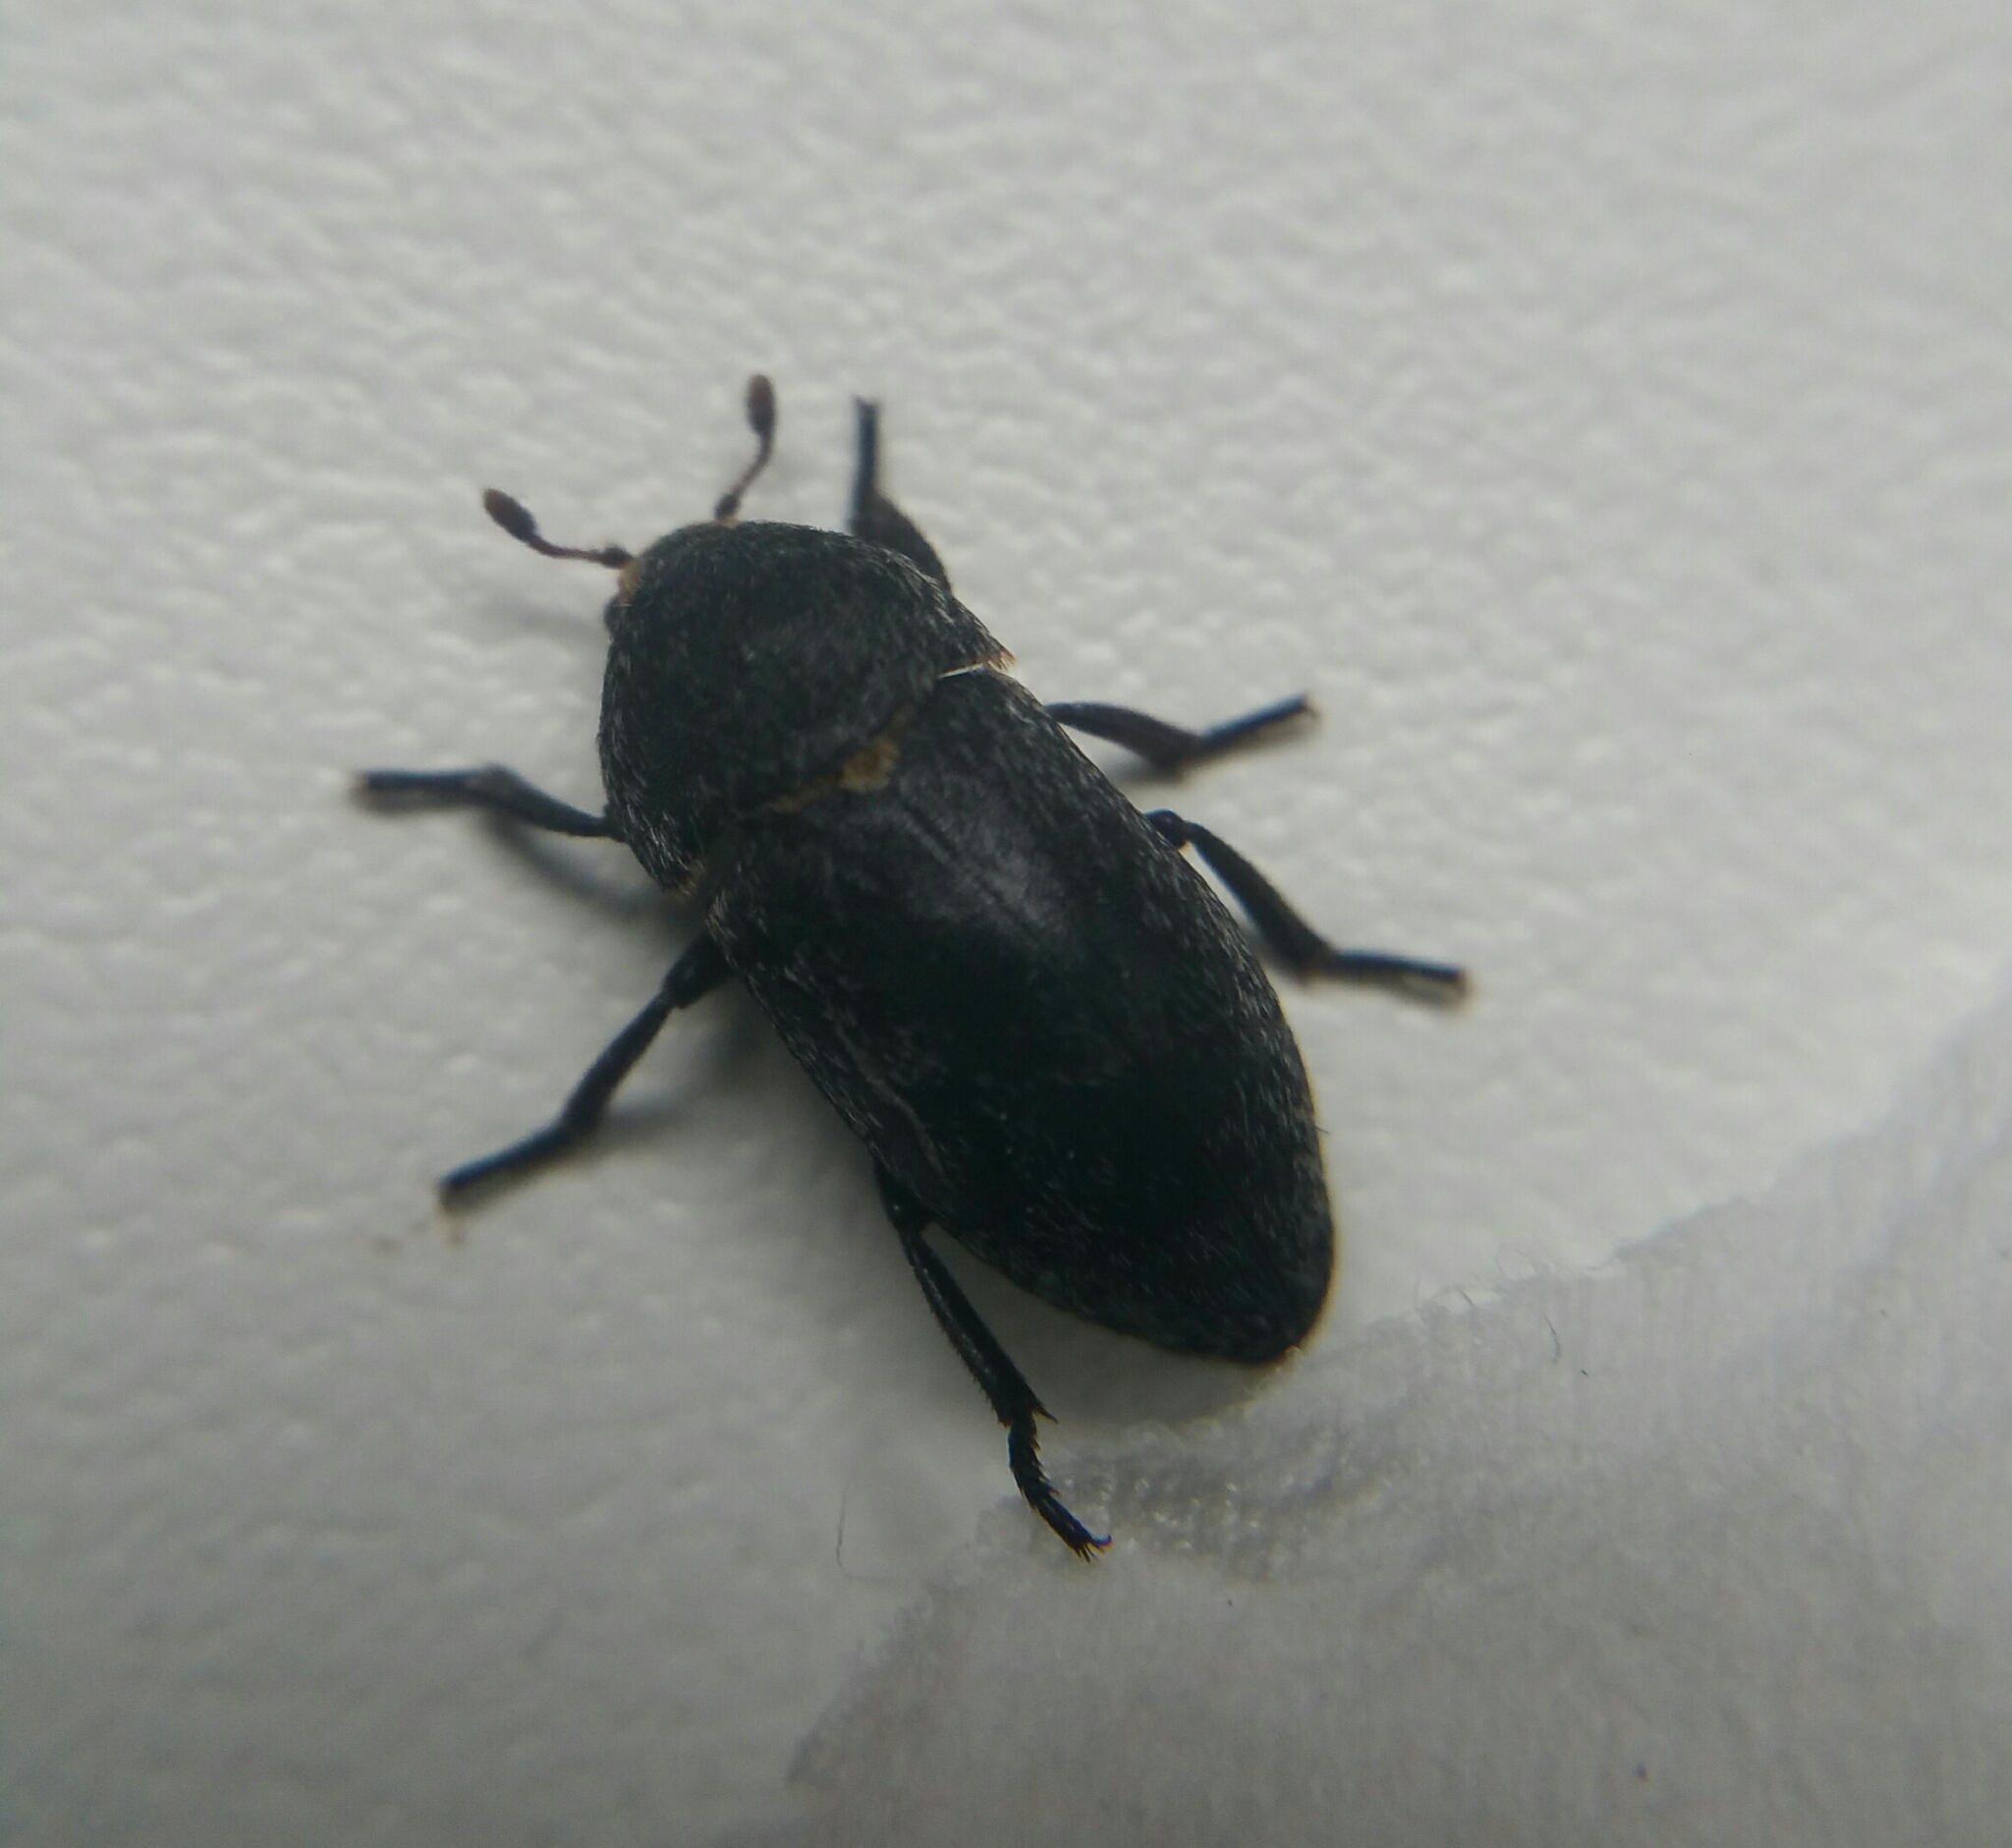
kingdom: Animalia
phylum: Arthropoda
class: Insecta
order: Coleoptera
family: Dermestidae
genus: Dermestes
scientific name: Dermestes laniarius
